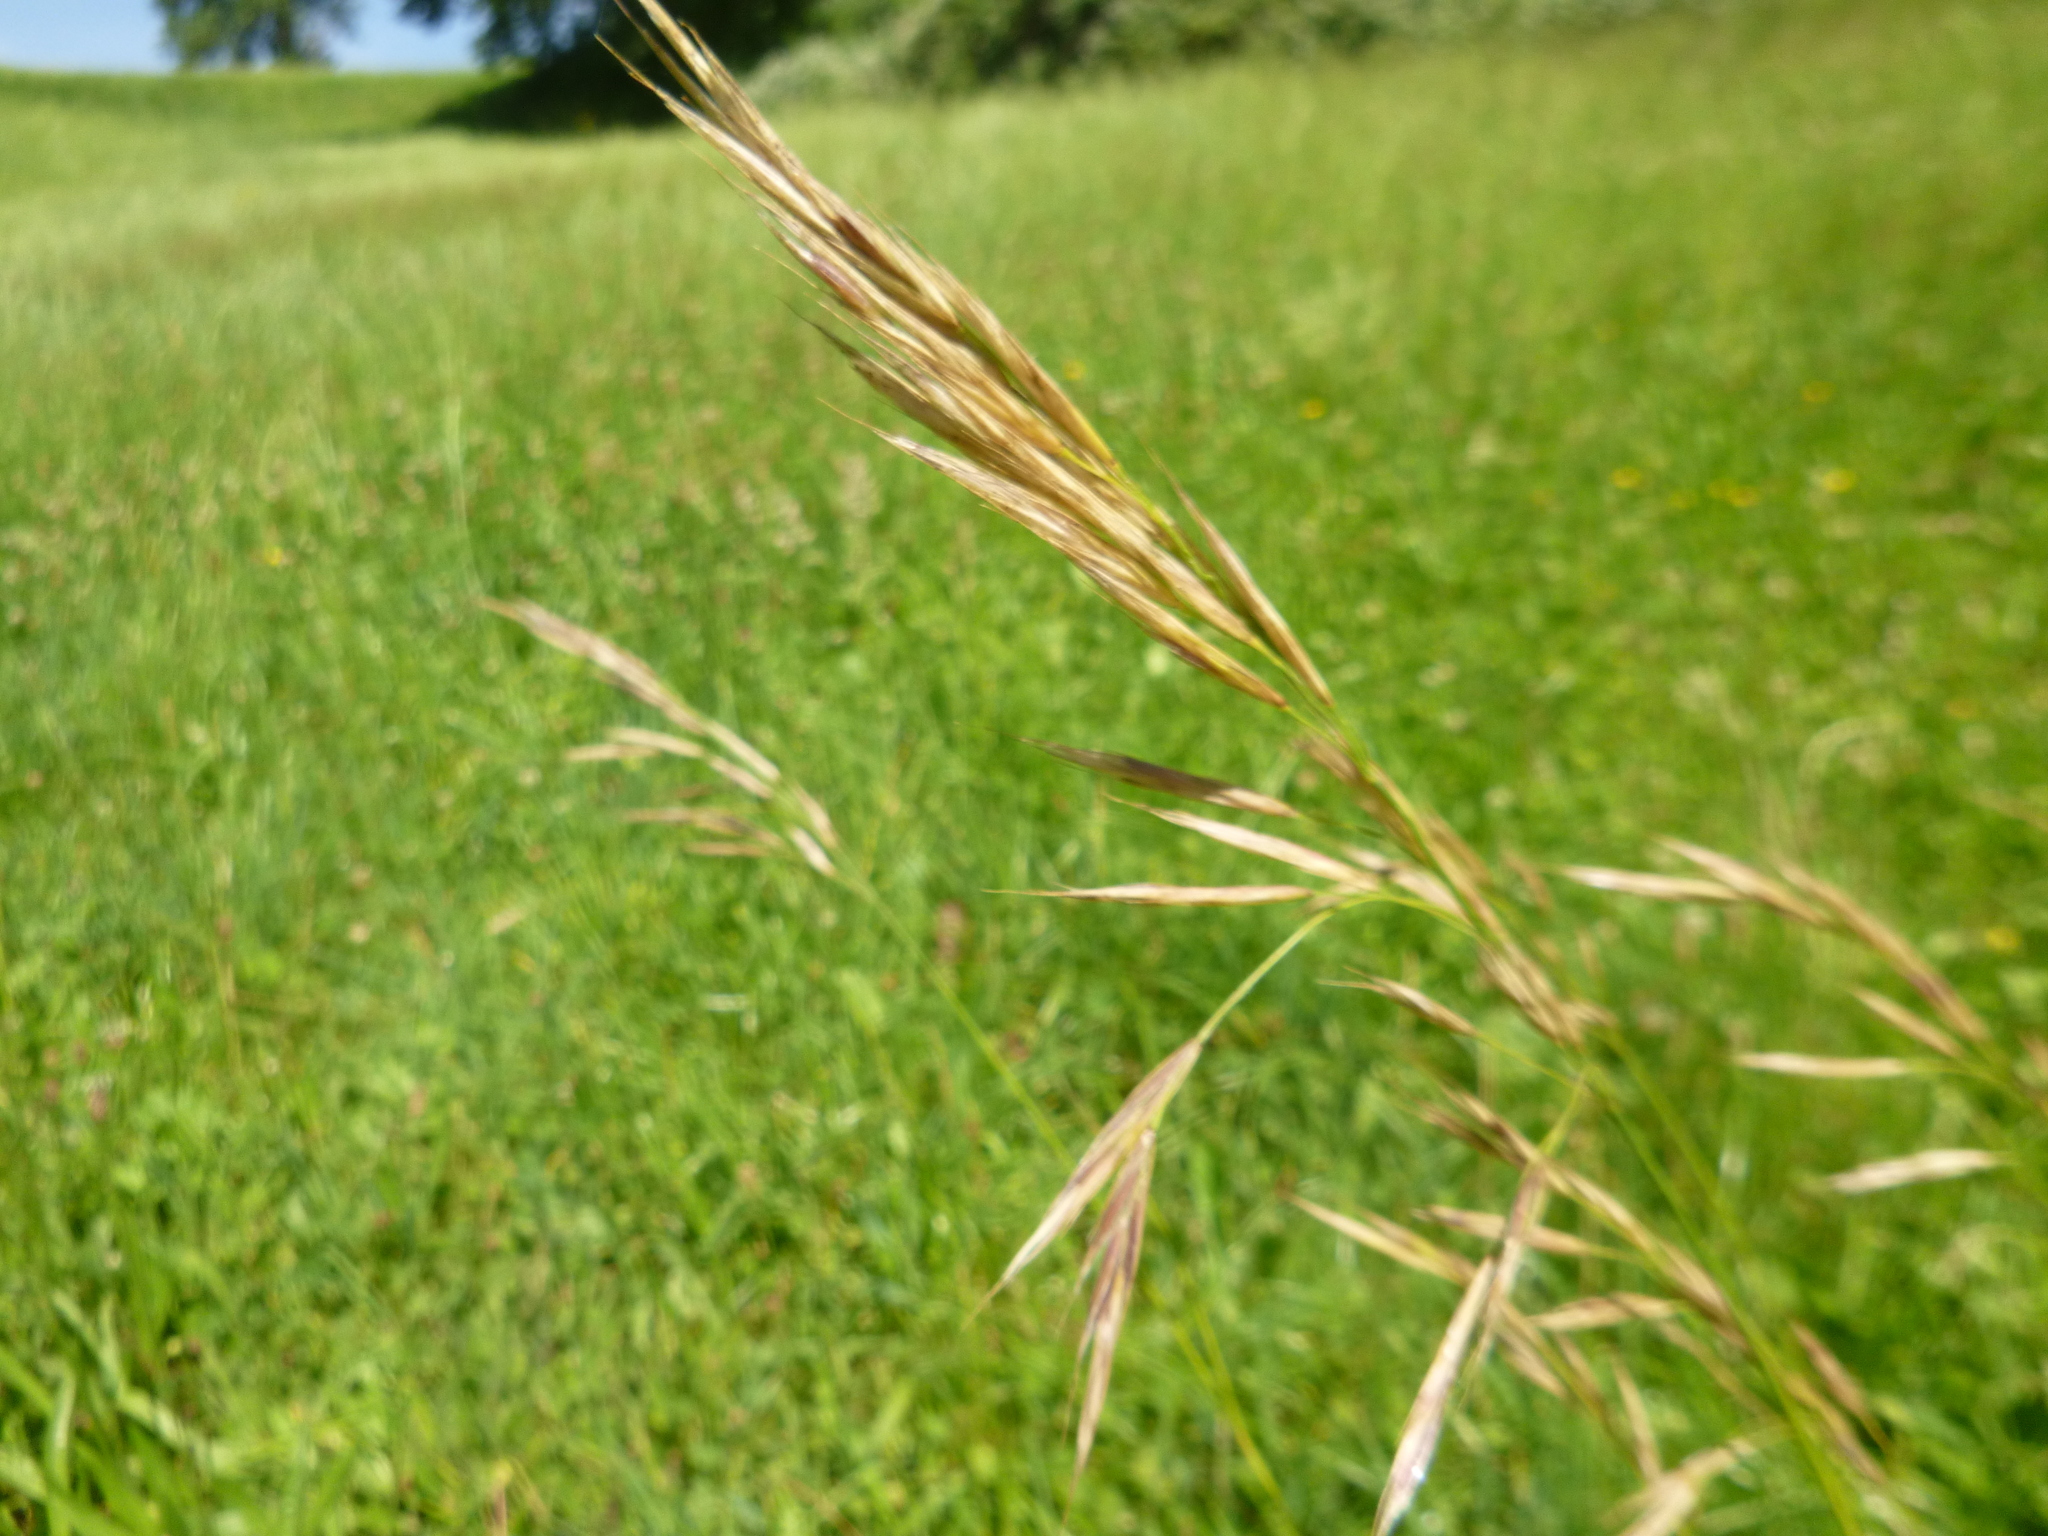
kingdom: Plantae
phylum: Tracheophyta
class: Liliopsida
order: Poales
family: Poaceae
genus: Bromus
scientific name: Bromus erectus
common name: Erect brome
